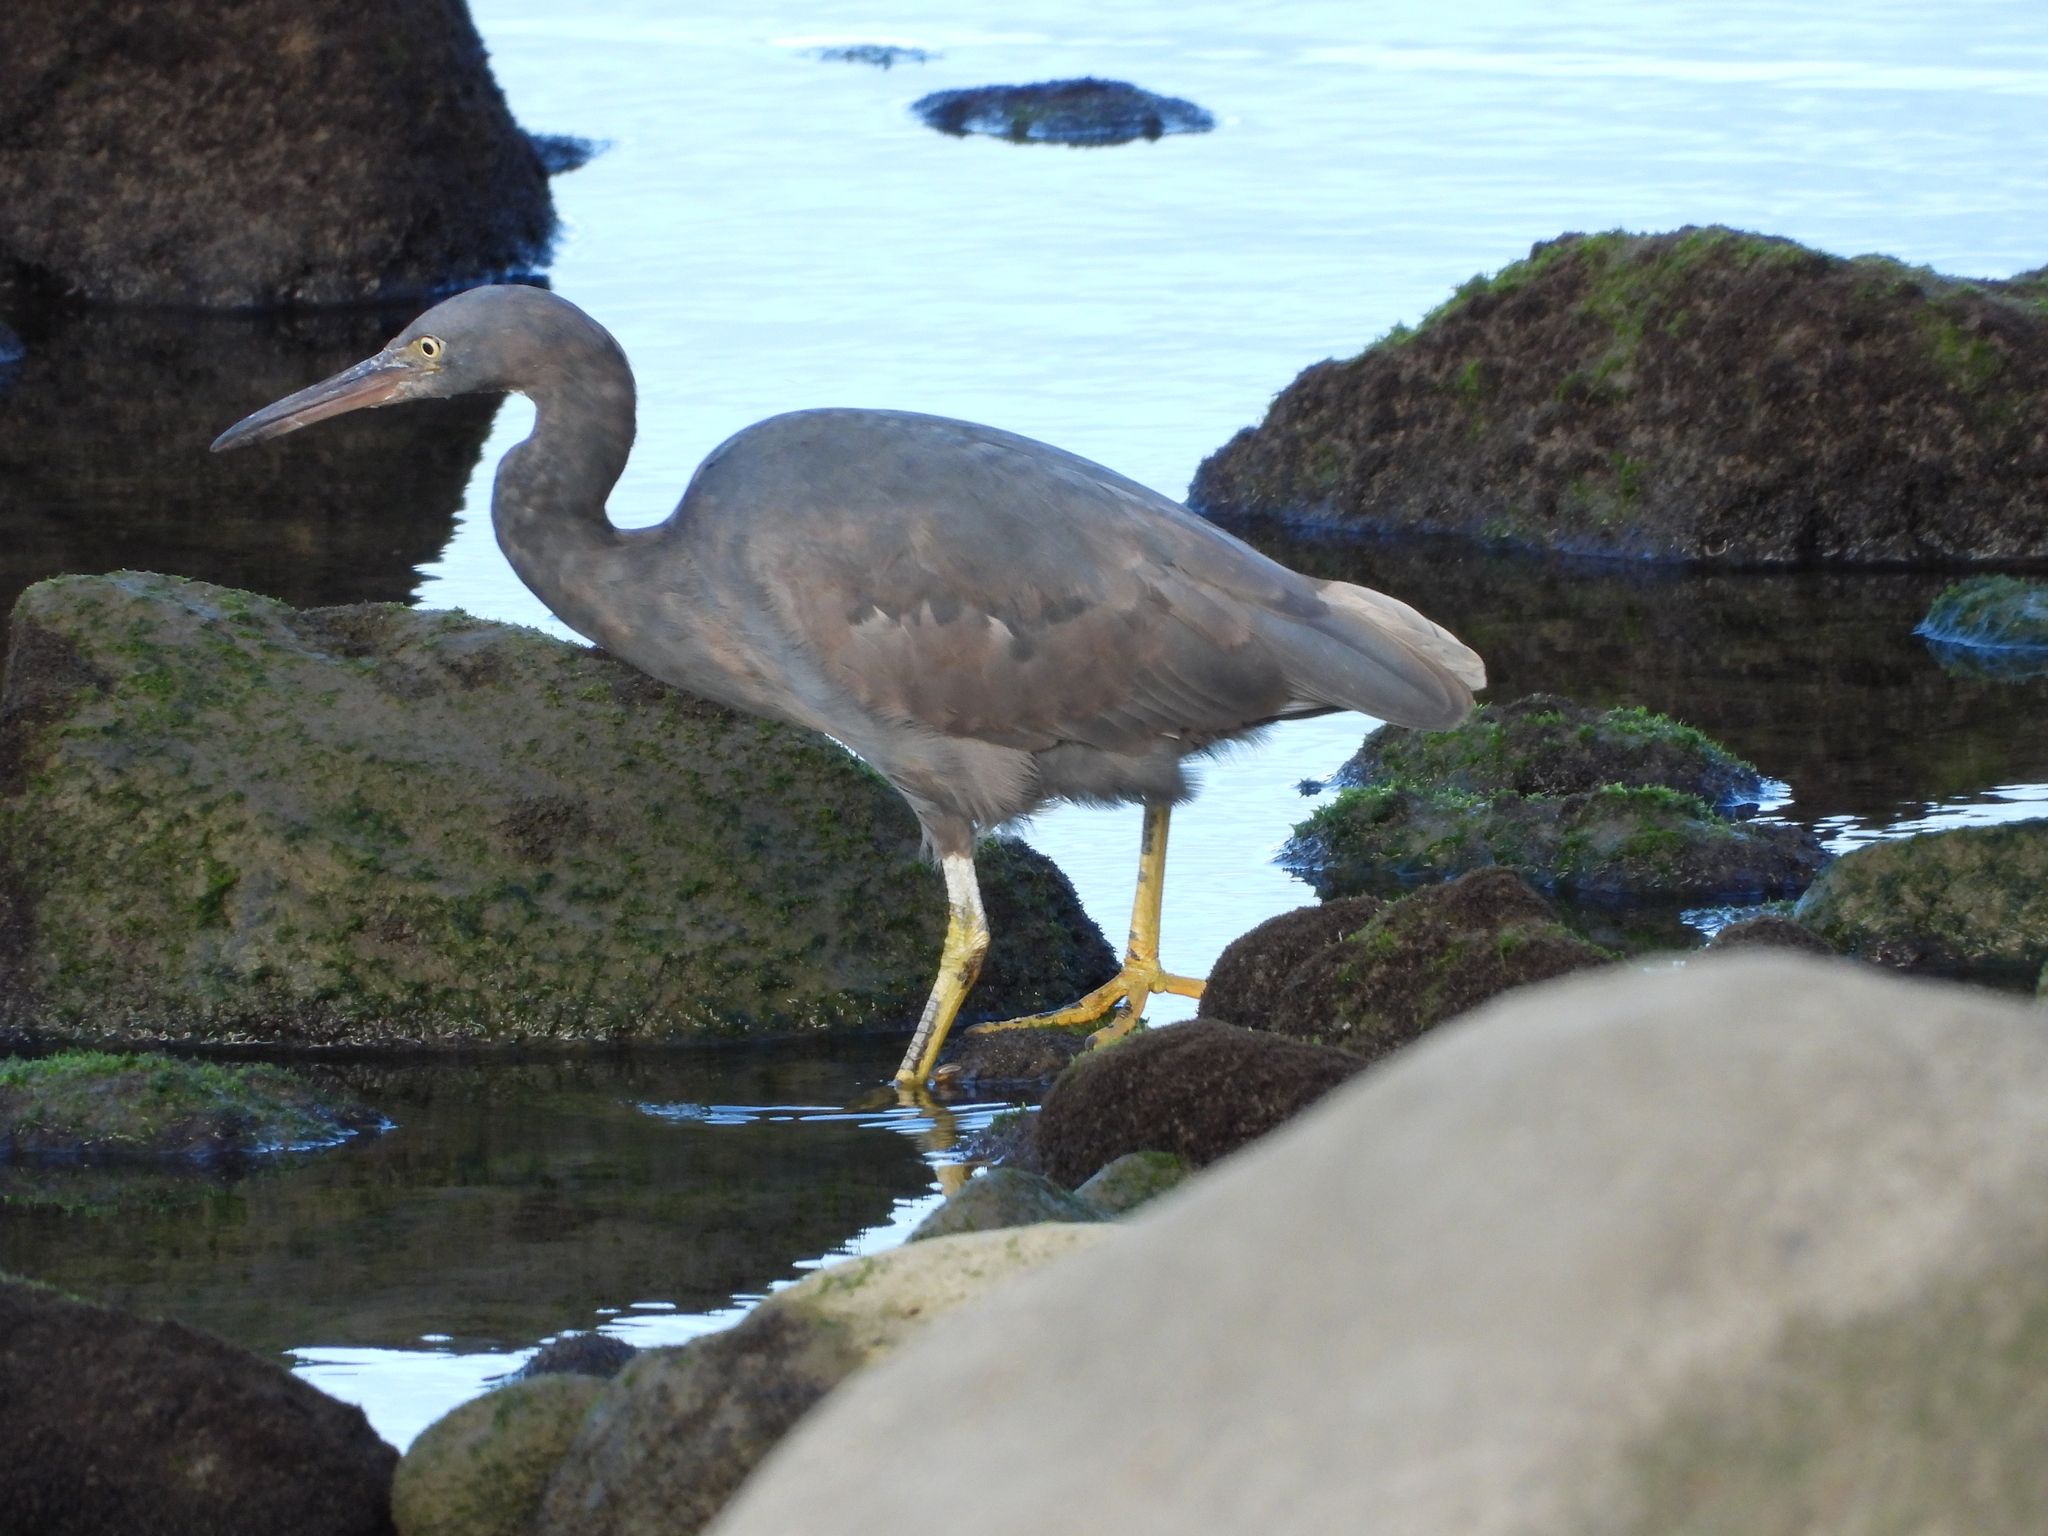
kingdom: Animalia
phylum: Chordata
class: Aves
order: Pelecaniformes
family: Ardeidae
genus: Egretta
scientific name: Egretta sacra
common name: Pacific reef heron
